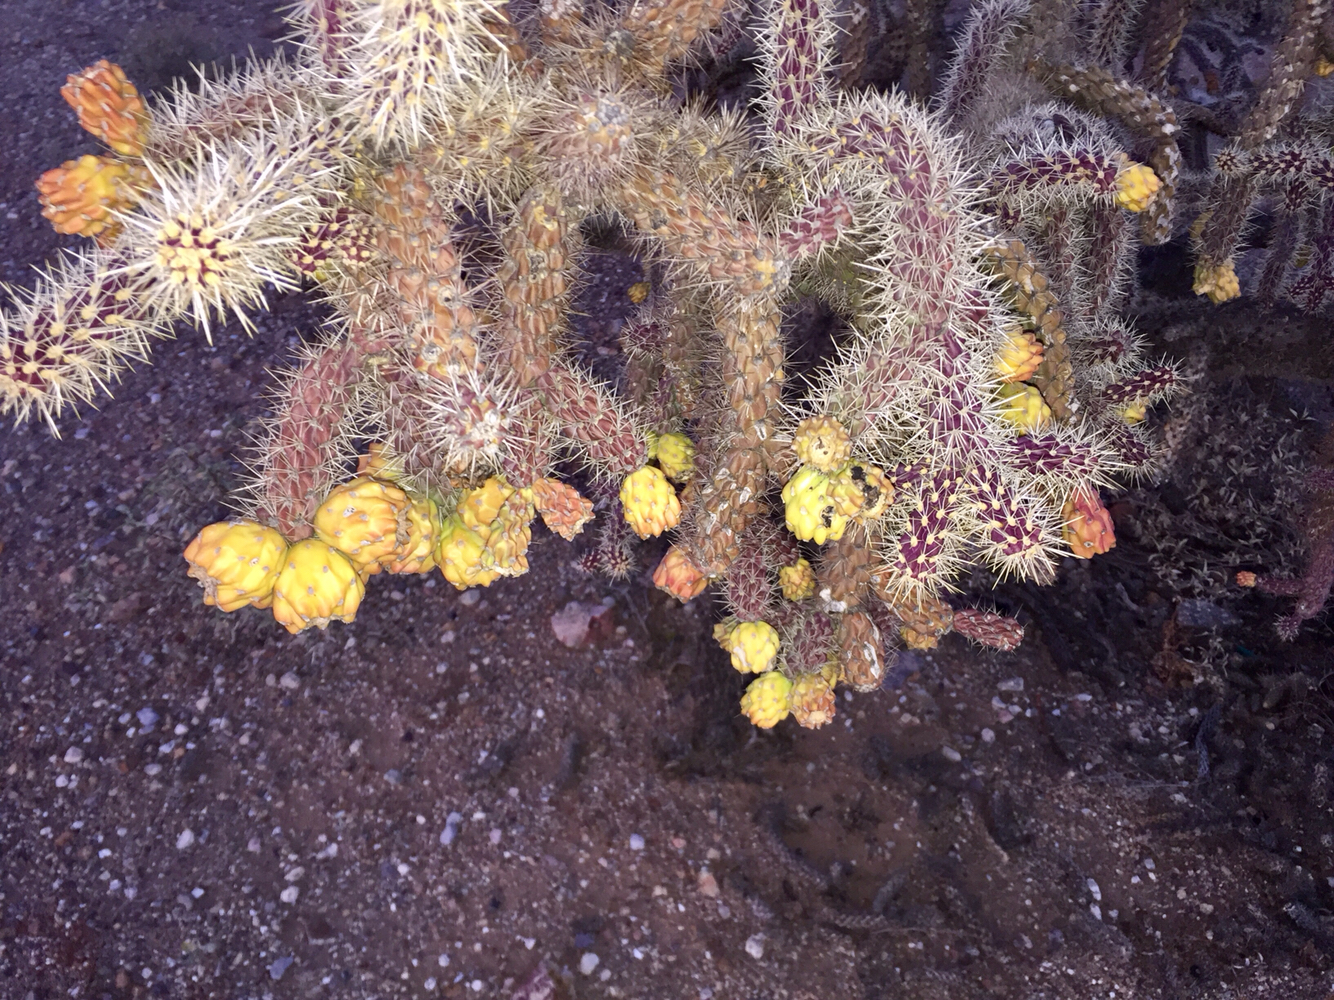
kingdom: Plantae
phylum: Tracheophyta
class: Magnoliopsida
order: Caryophyllales
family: Cactaceae
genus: Cylindropuntia
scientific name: Cylindropuntia thurberi
